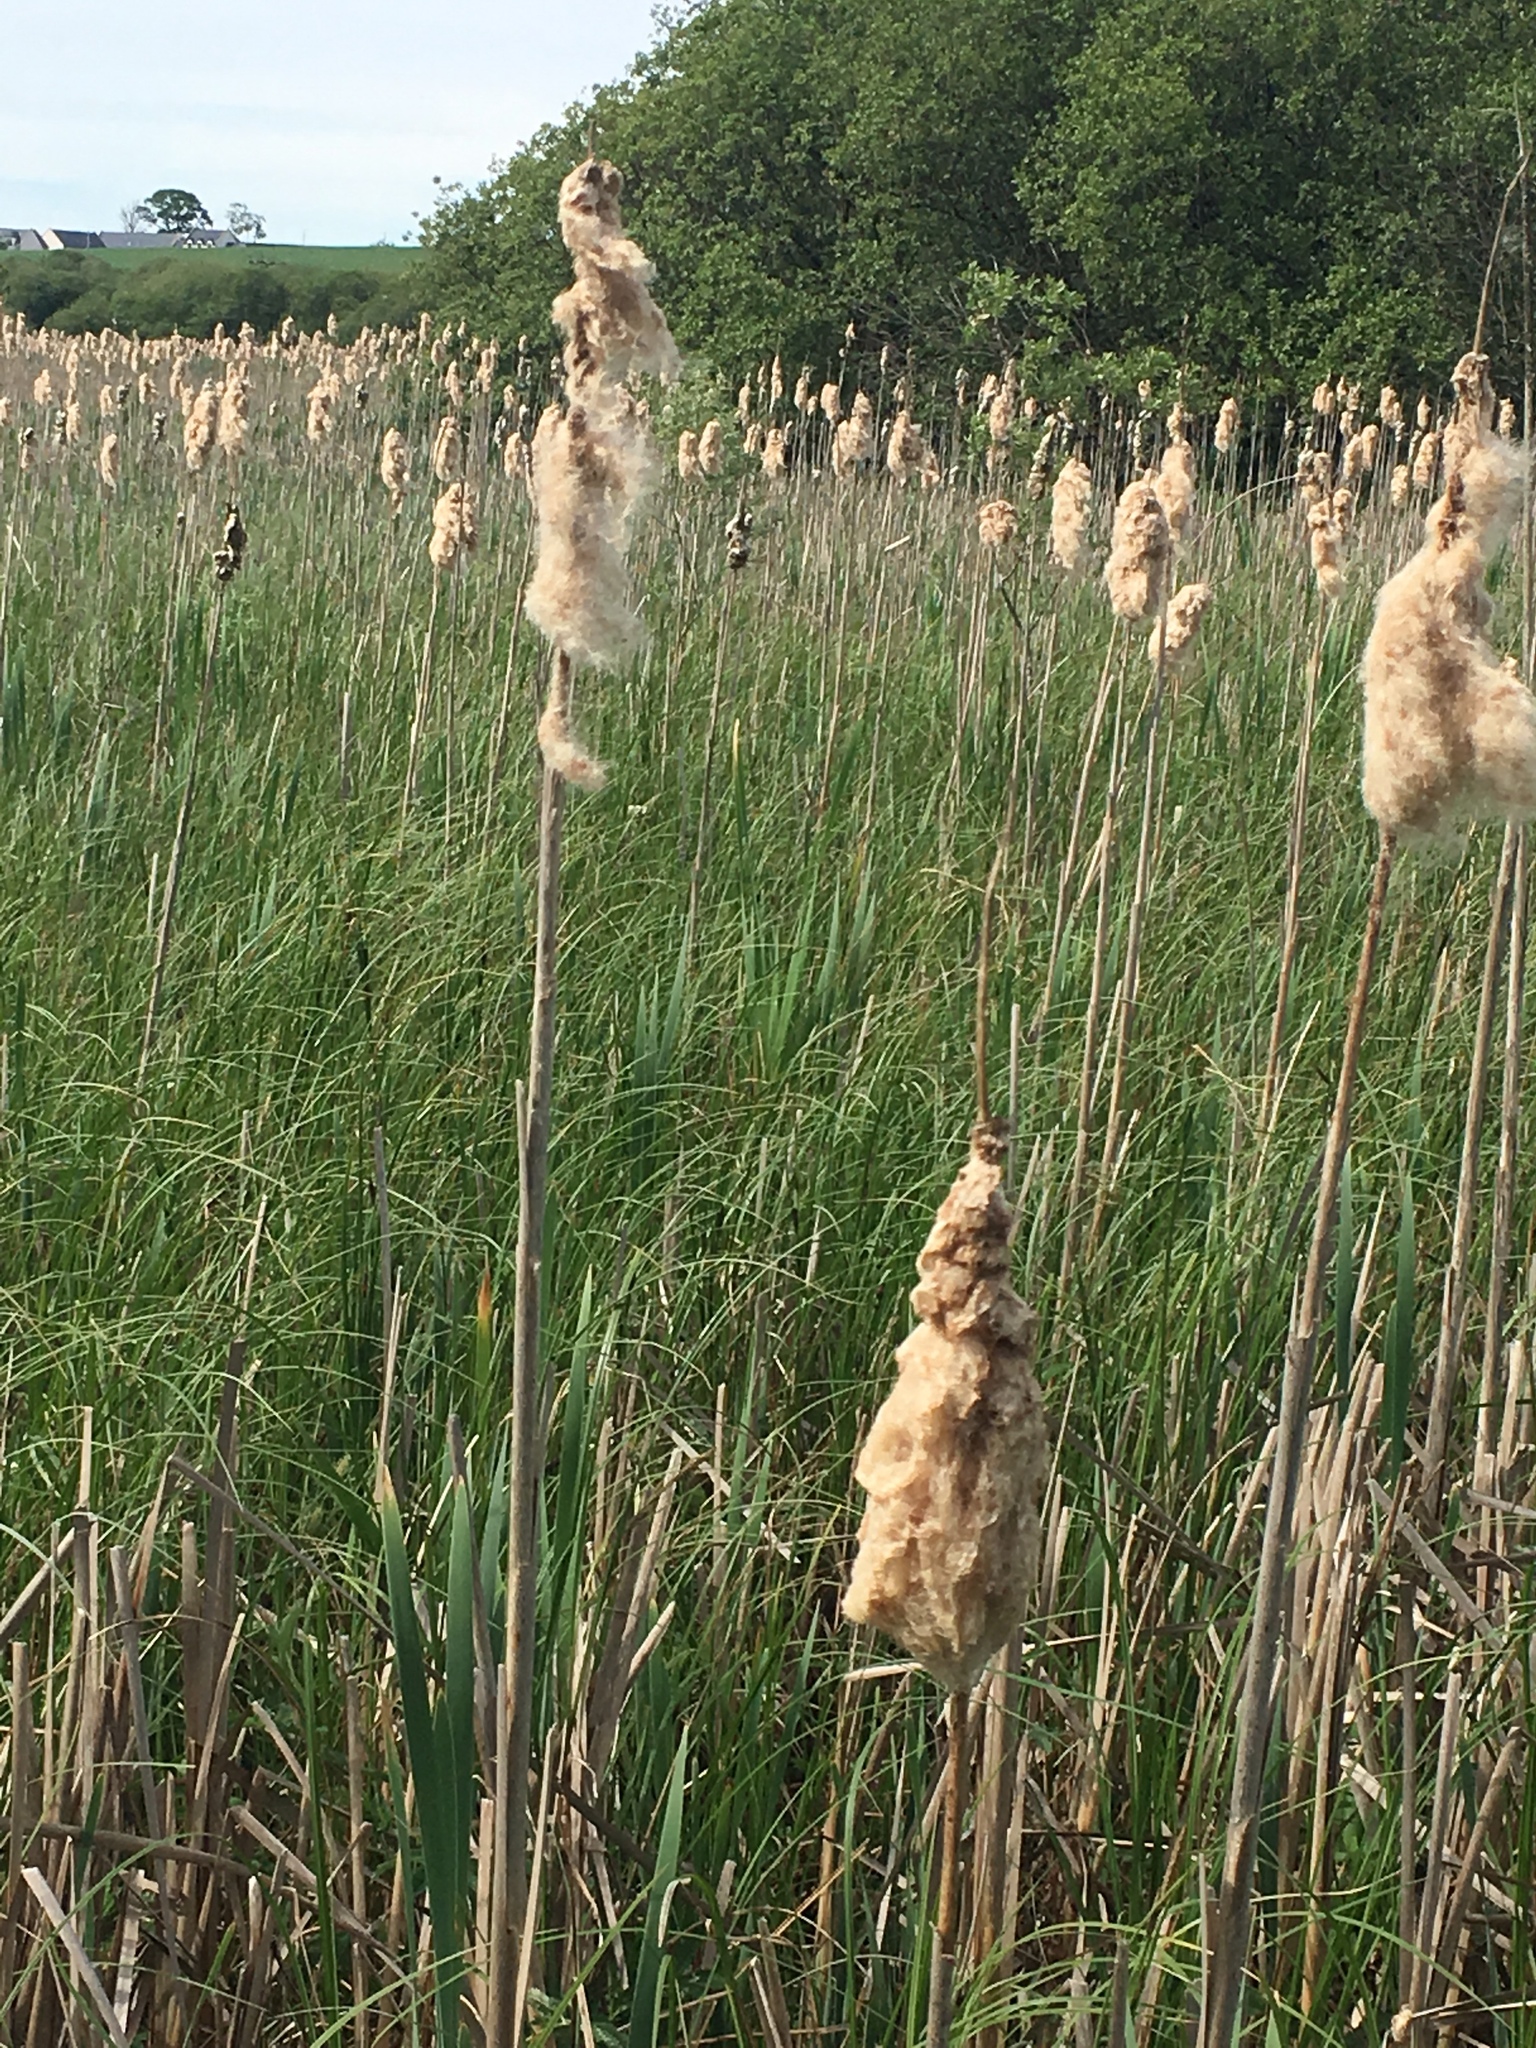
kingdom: Plantae
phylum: Tracheophyta
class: Liliopsida
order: Poales
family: Typhaceae
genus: Typha
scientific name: Typha latifolia
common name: Broadleaf cattail
